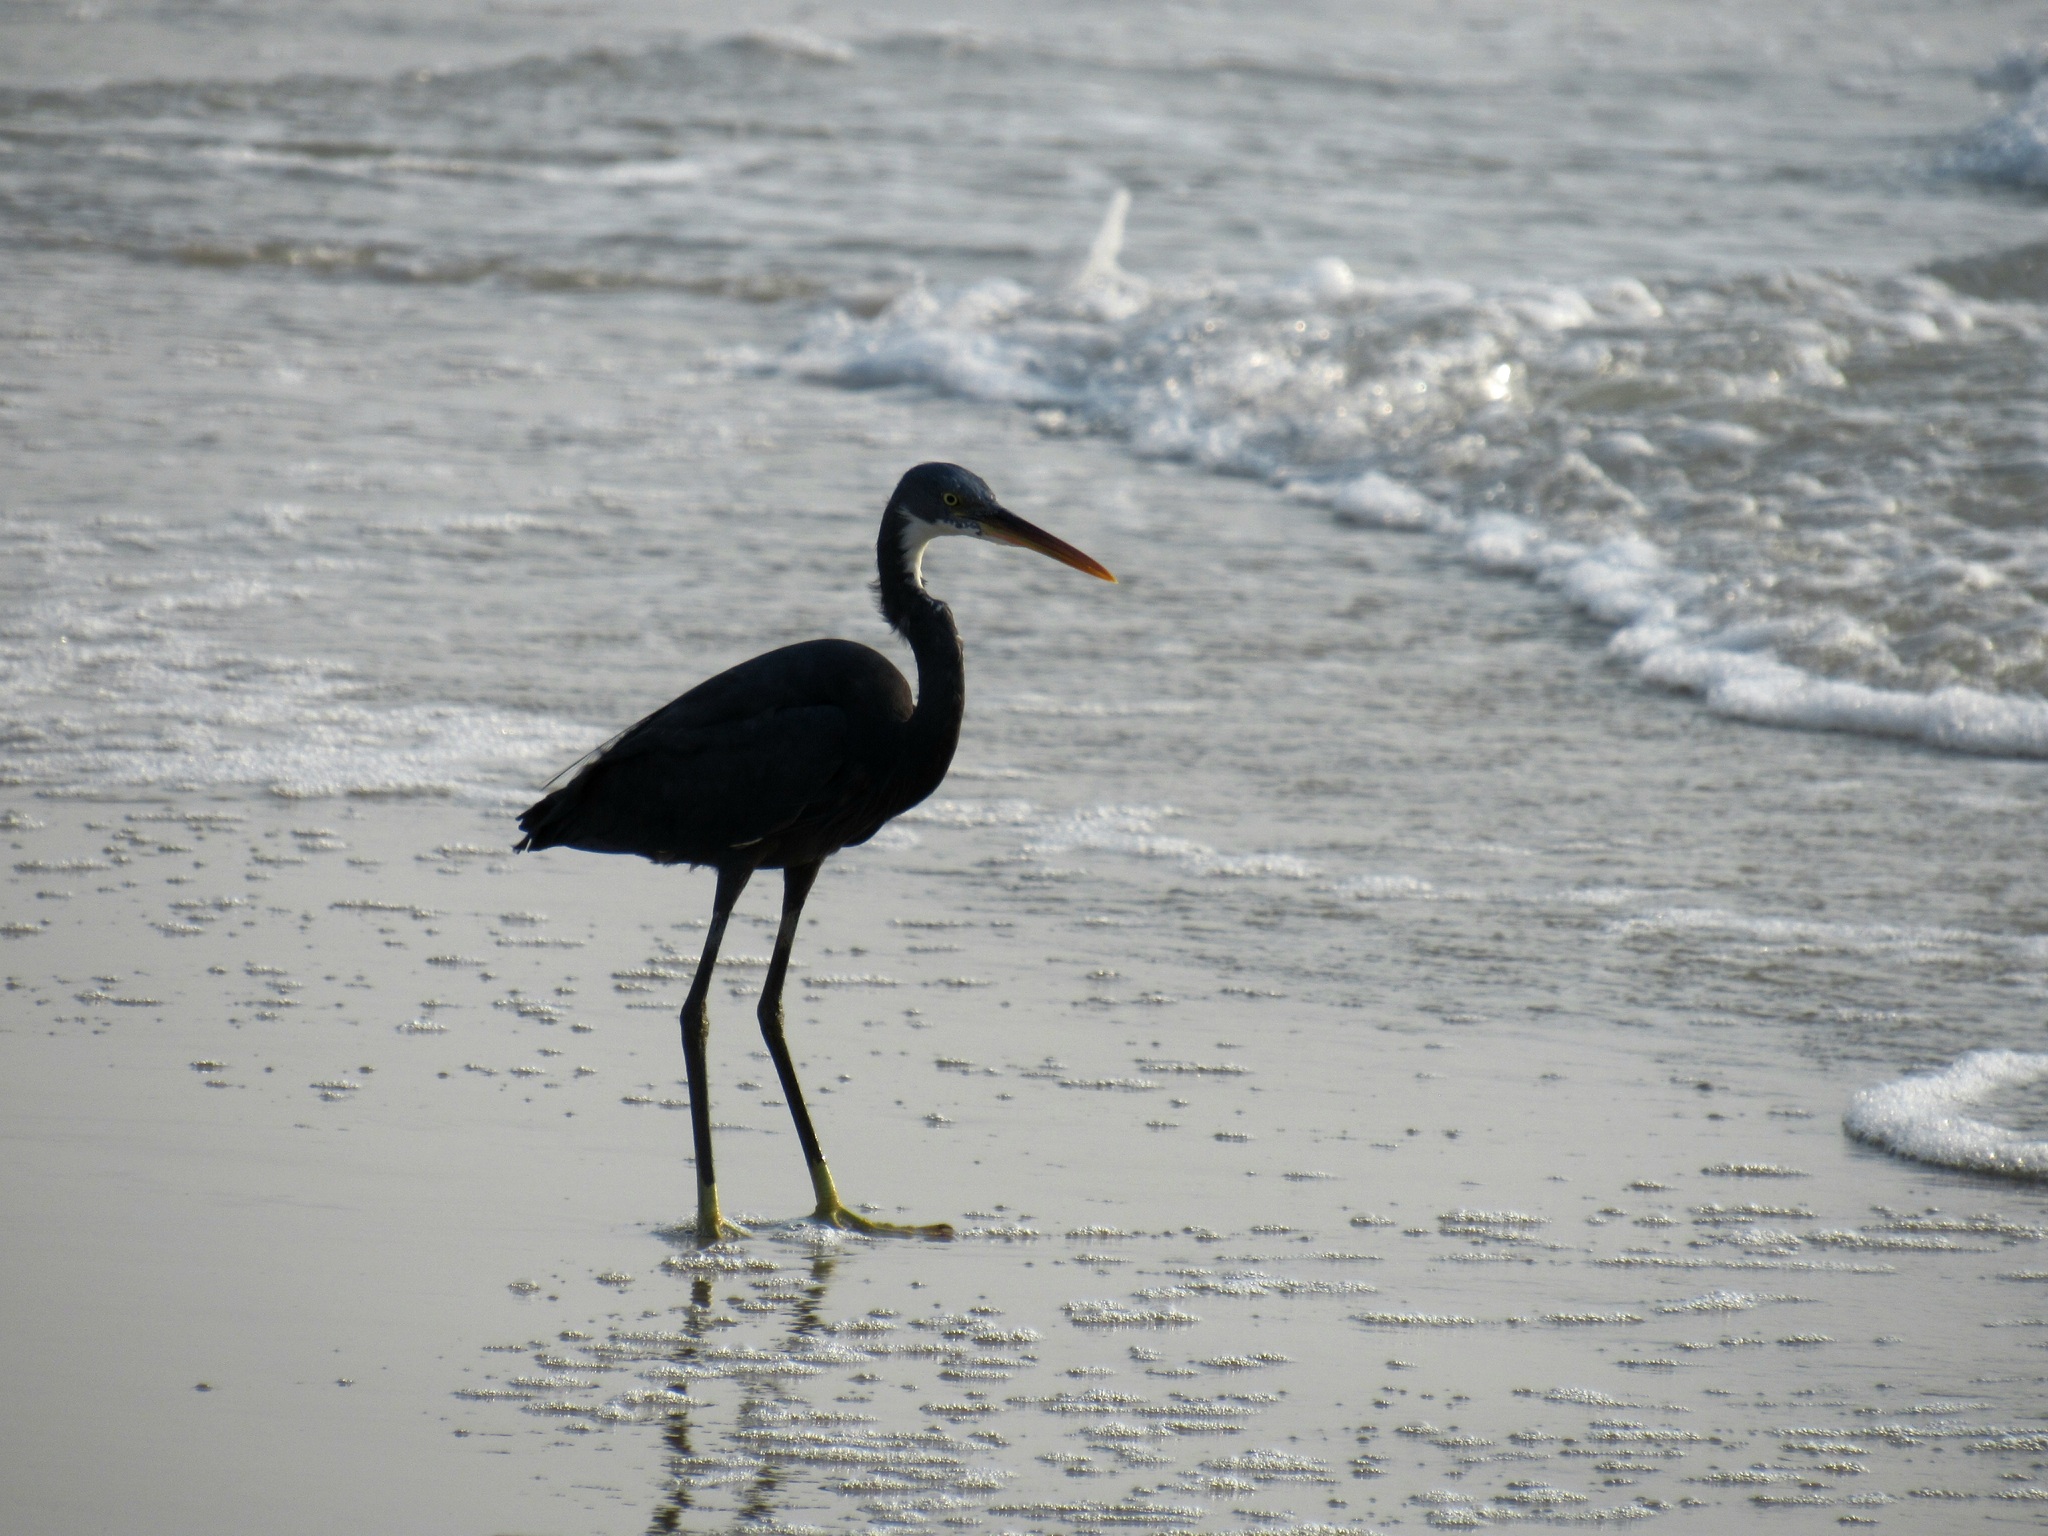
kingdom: Animalia
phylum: Chordata
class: Aves
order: Pelecaniformes
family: Ardeidae
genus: Egretta
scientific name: Egretta gularis
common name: Western reef-heron
